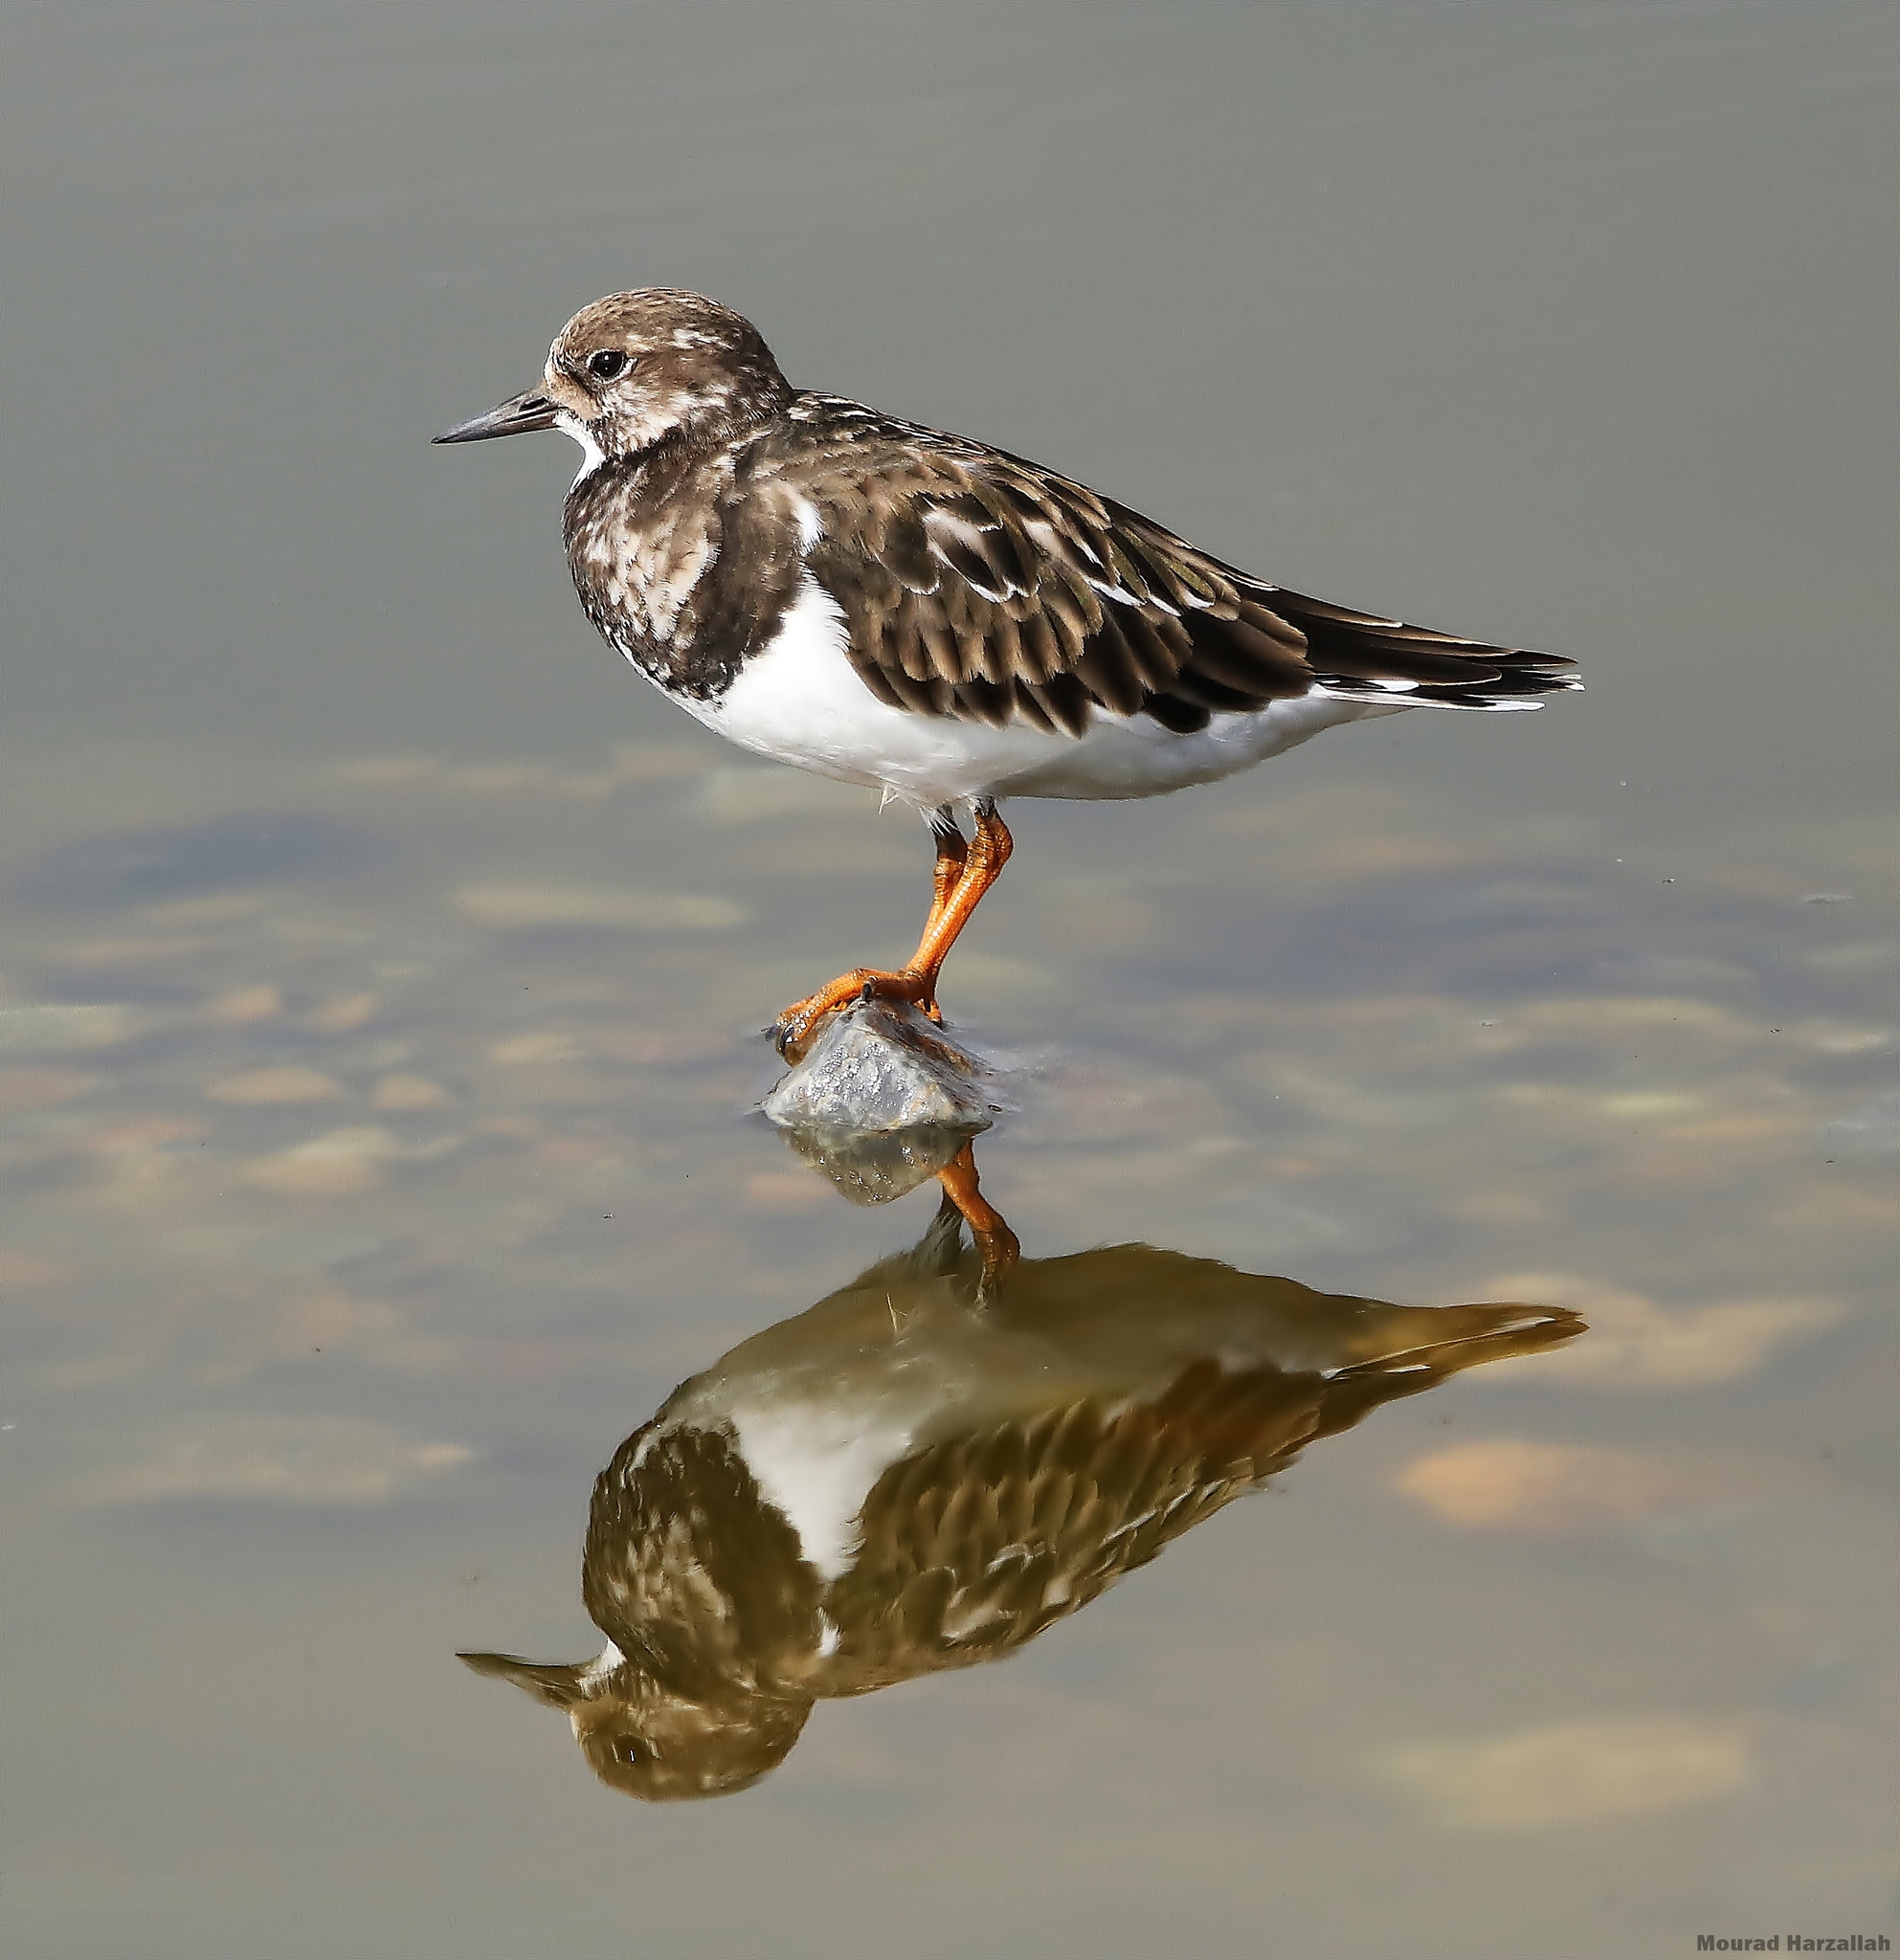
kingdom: Animalia
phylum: Chordata
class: Aves
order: Charadriiformes
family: Scolopacidae
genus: Arenaria
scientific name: Arenaria interpres
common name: Ruddy turnstone
